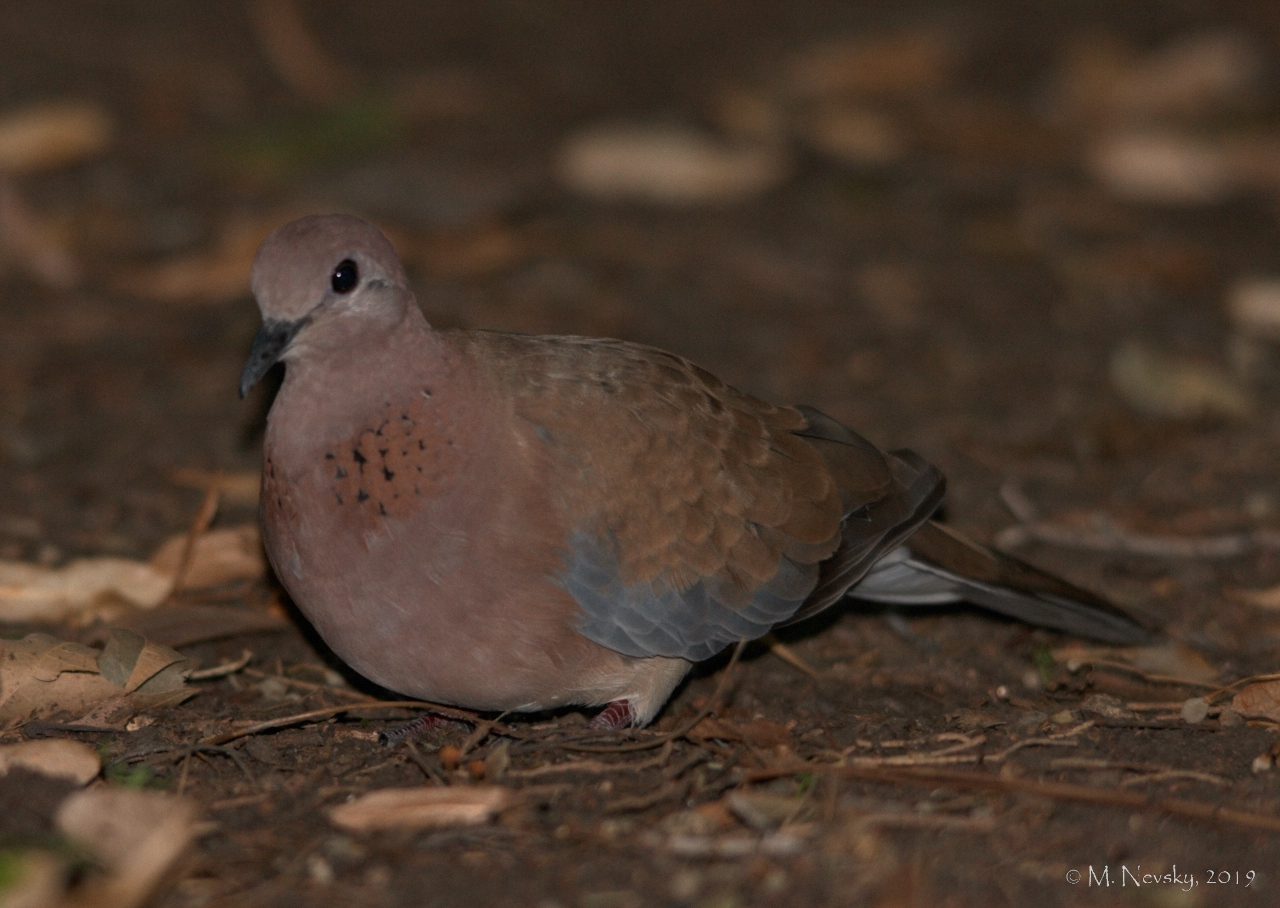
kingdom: Animalia
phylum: Chordata
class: Aves
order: Columbiformes
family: Columbidae
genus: Spilopelia
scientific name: Spilopelia senegalensis
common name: Laughing dove
